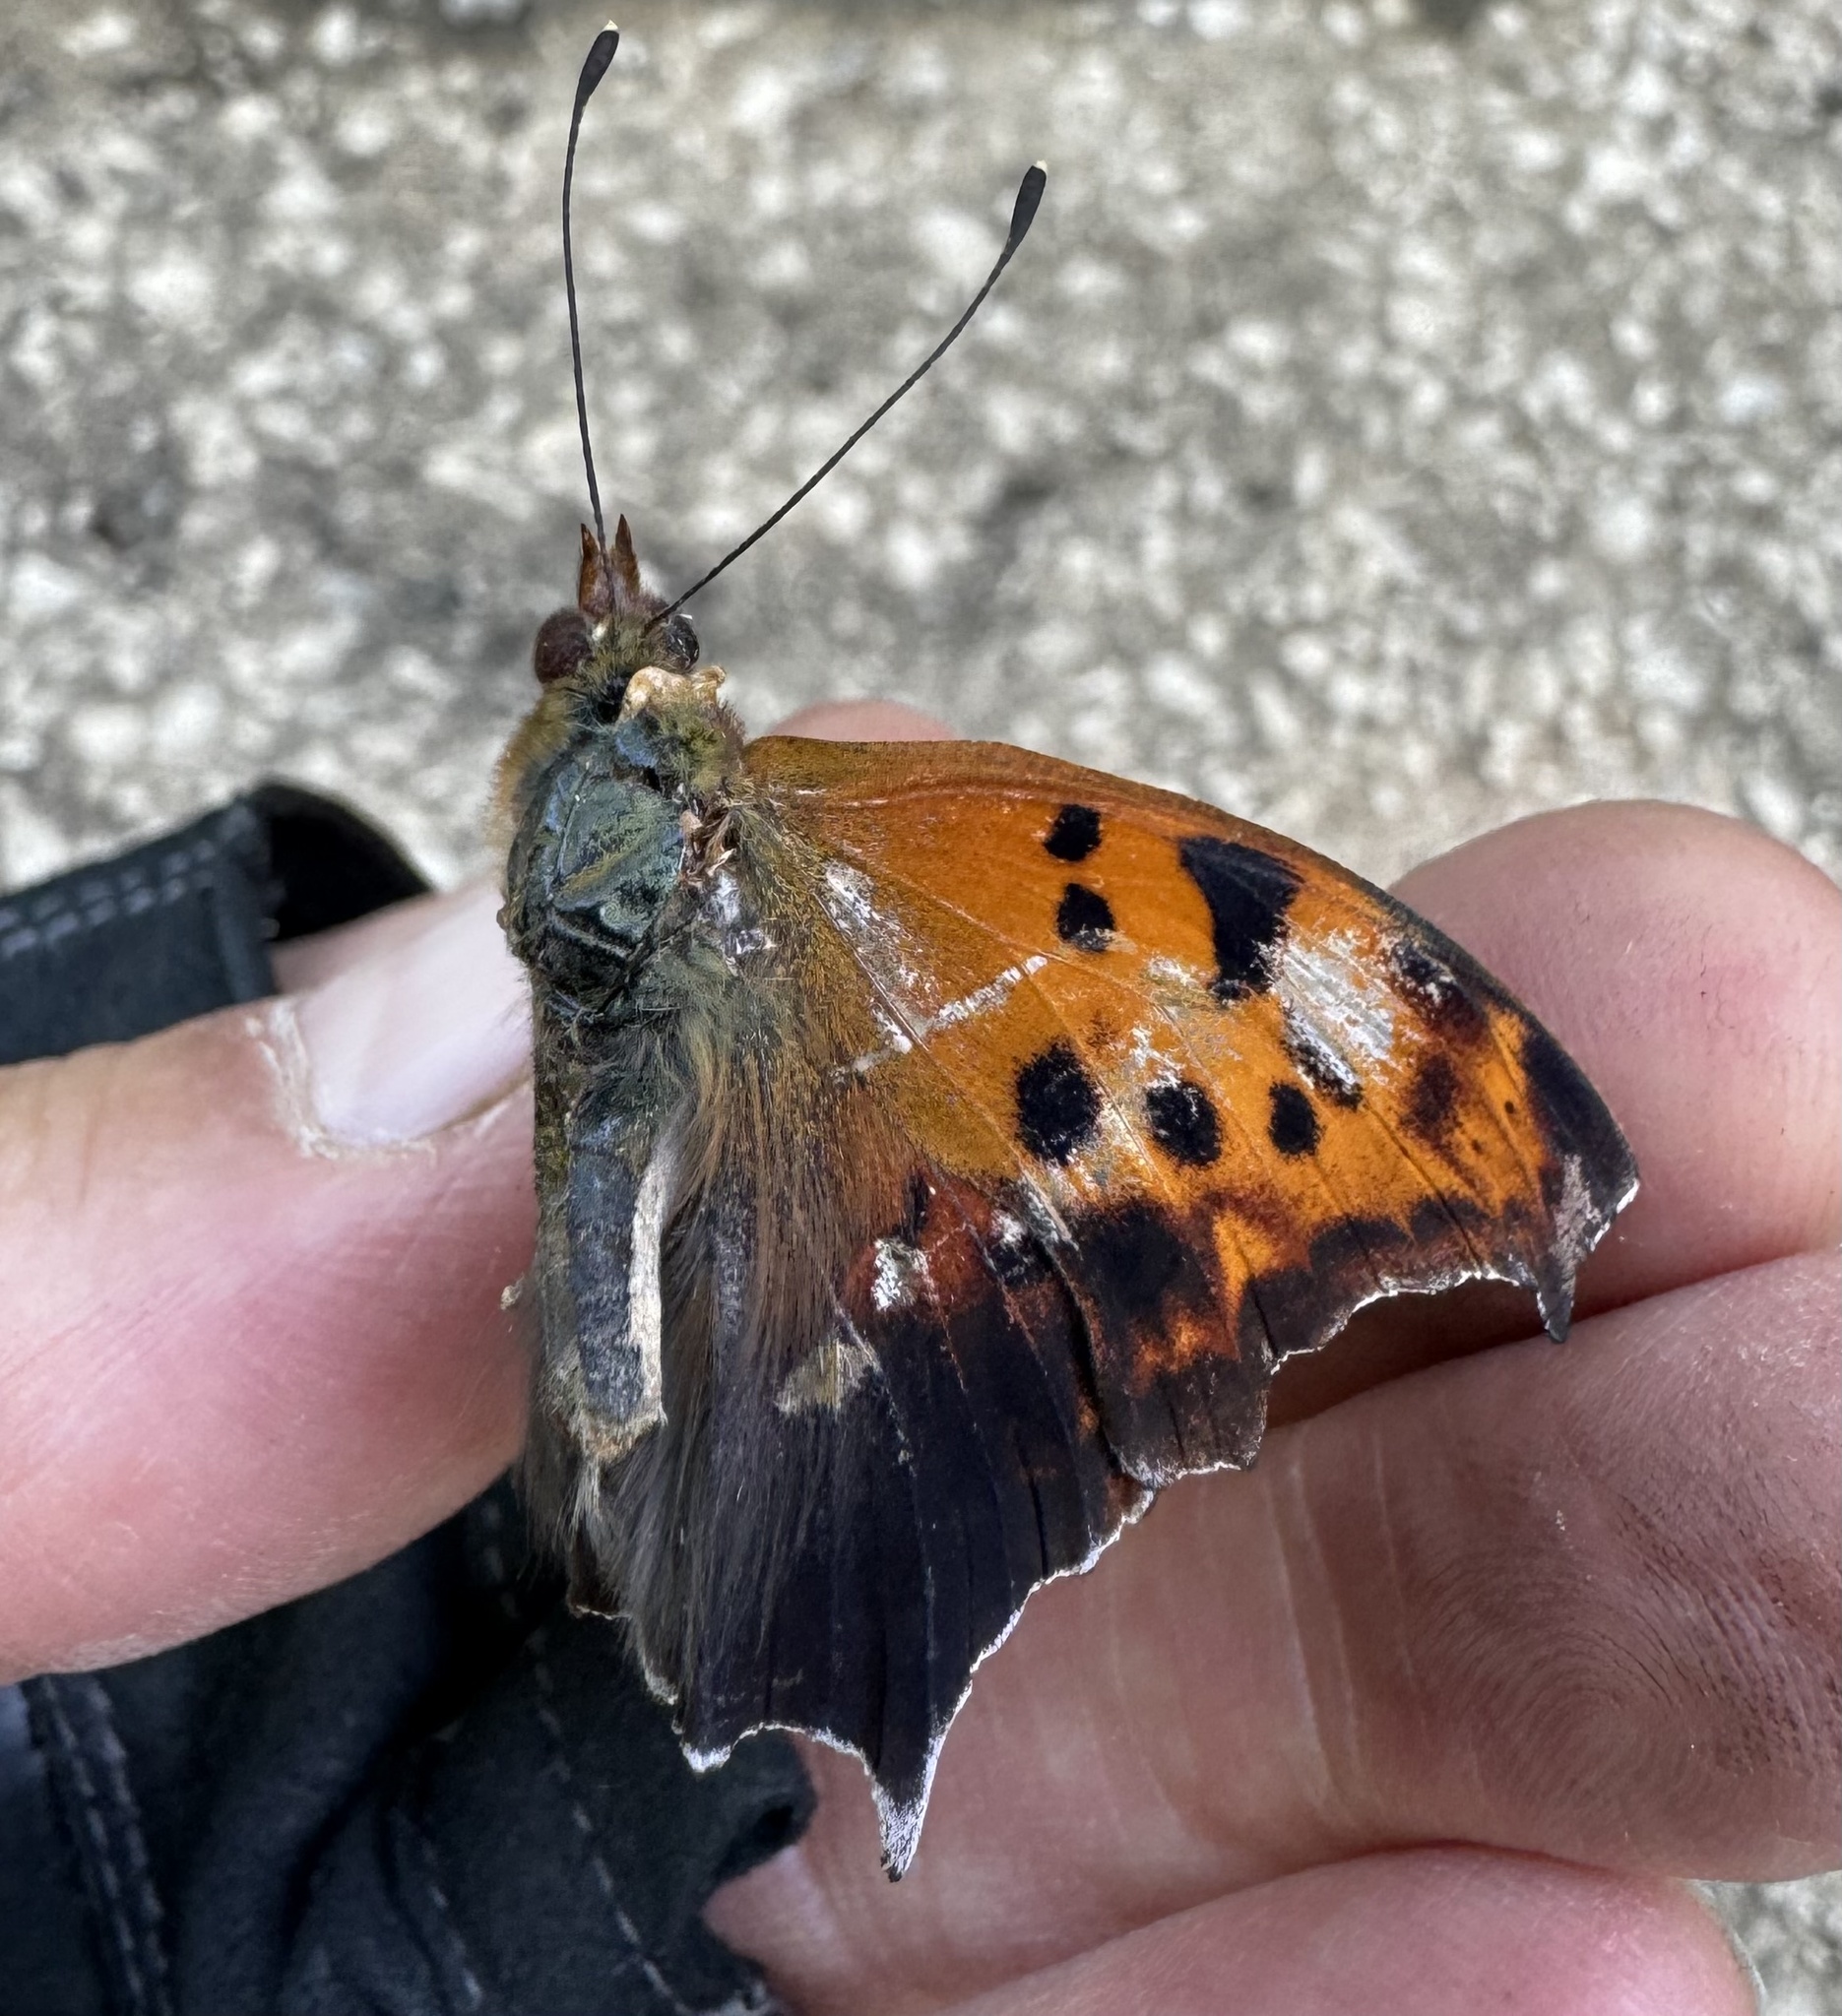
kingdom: Animalia
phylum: Arthropoda
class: Insecta
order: Lepidoptera
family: Nymphalidae
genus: Polygonia
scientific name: Polygonia interrogationis
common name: Question mark
